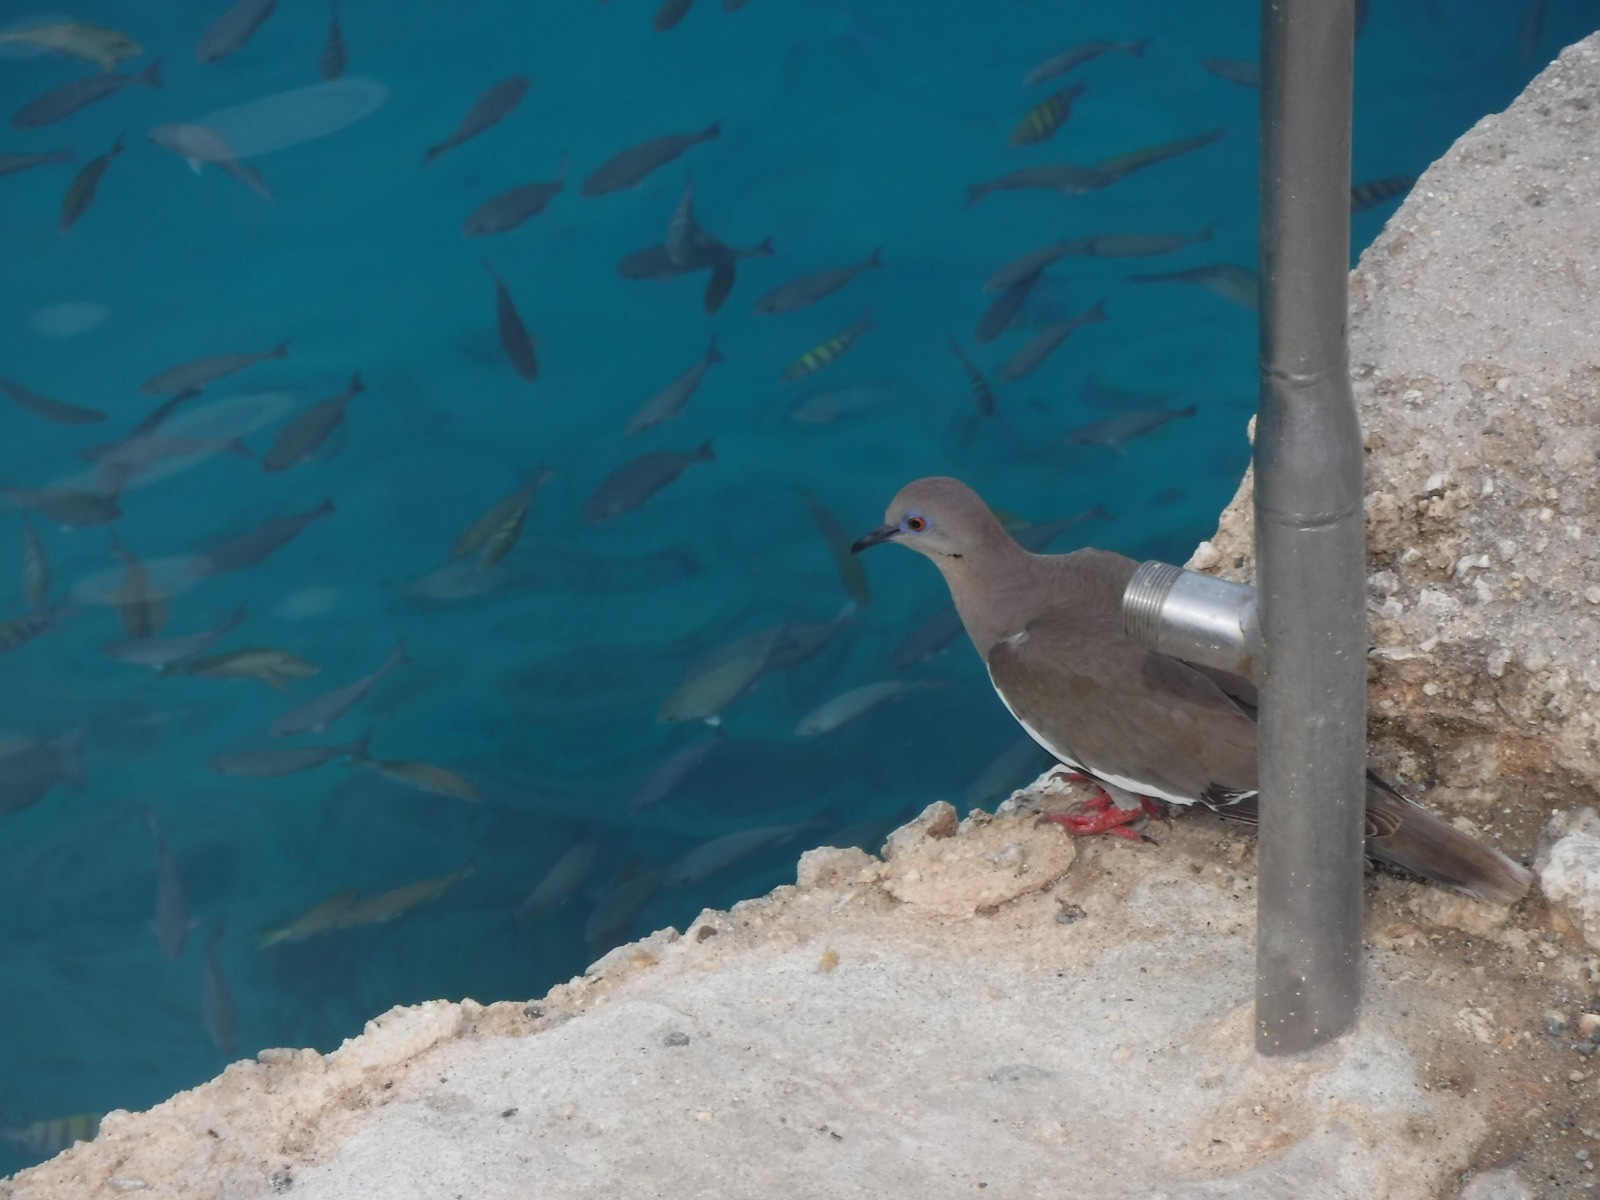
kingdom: Animalia
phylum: Chordata
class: Aves
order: Columbiformes
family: Columbidae
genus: Zenaida
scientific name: Zenaida asiatica
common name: White-winged dove
